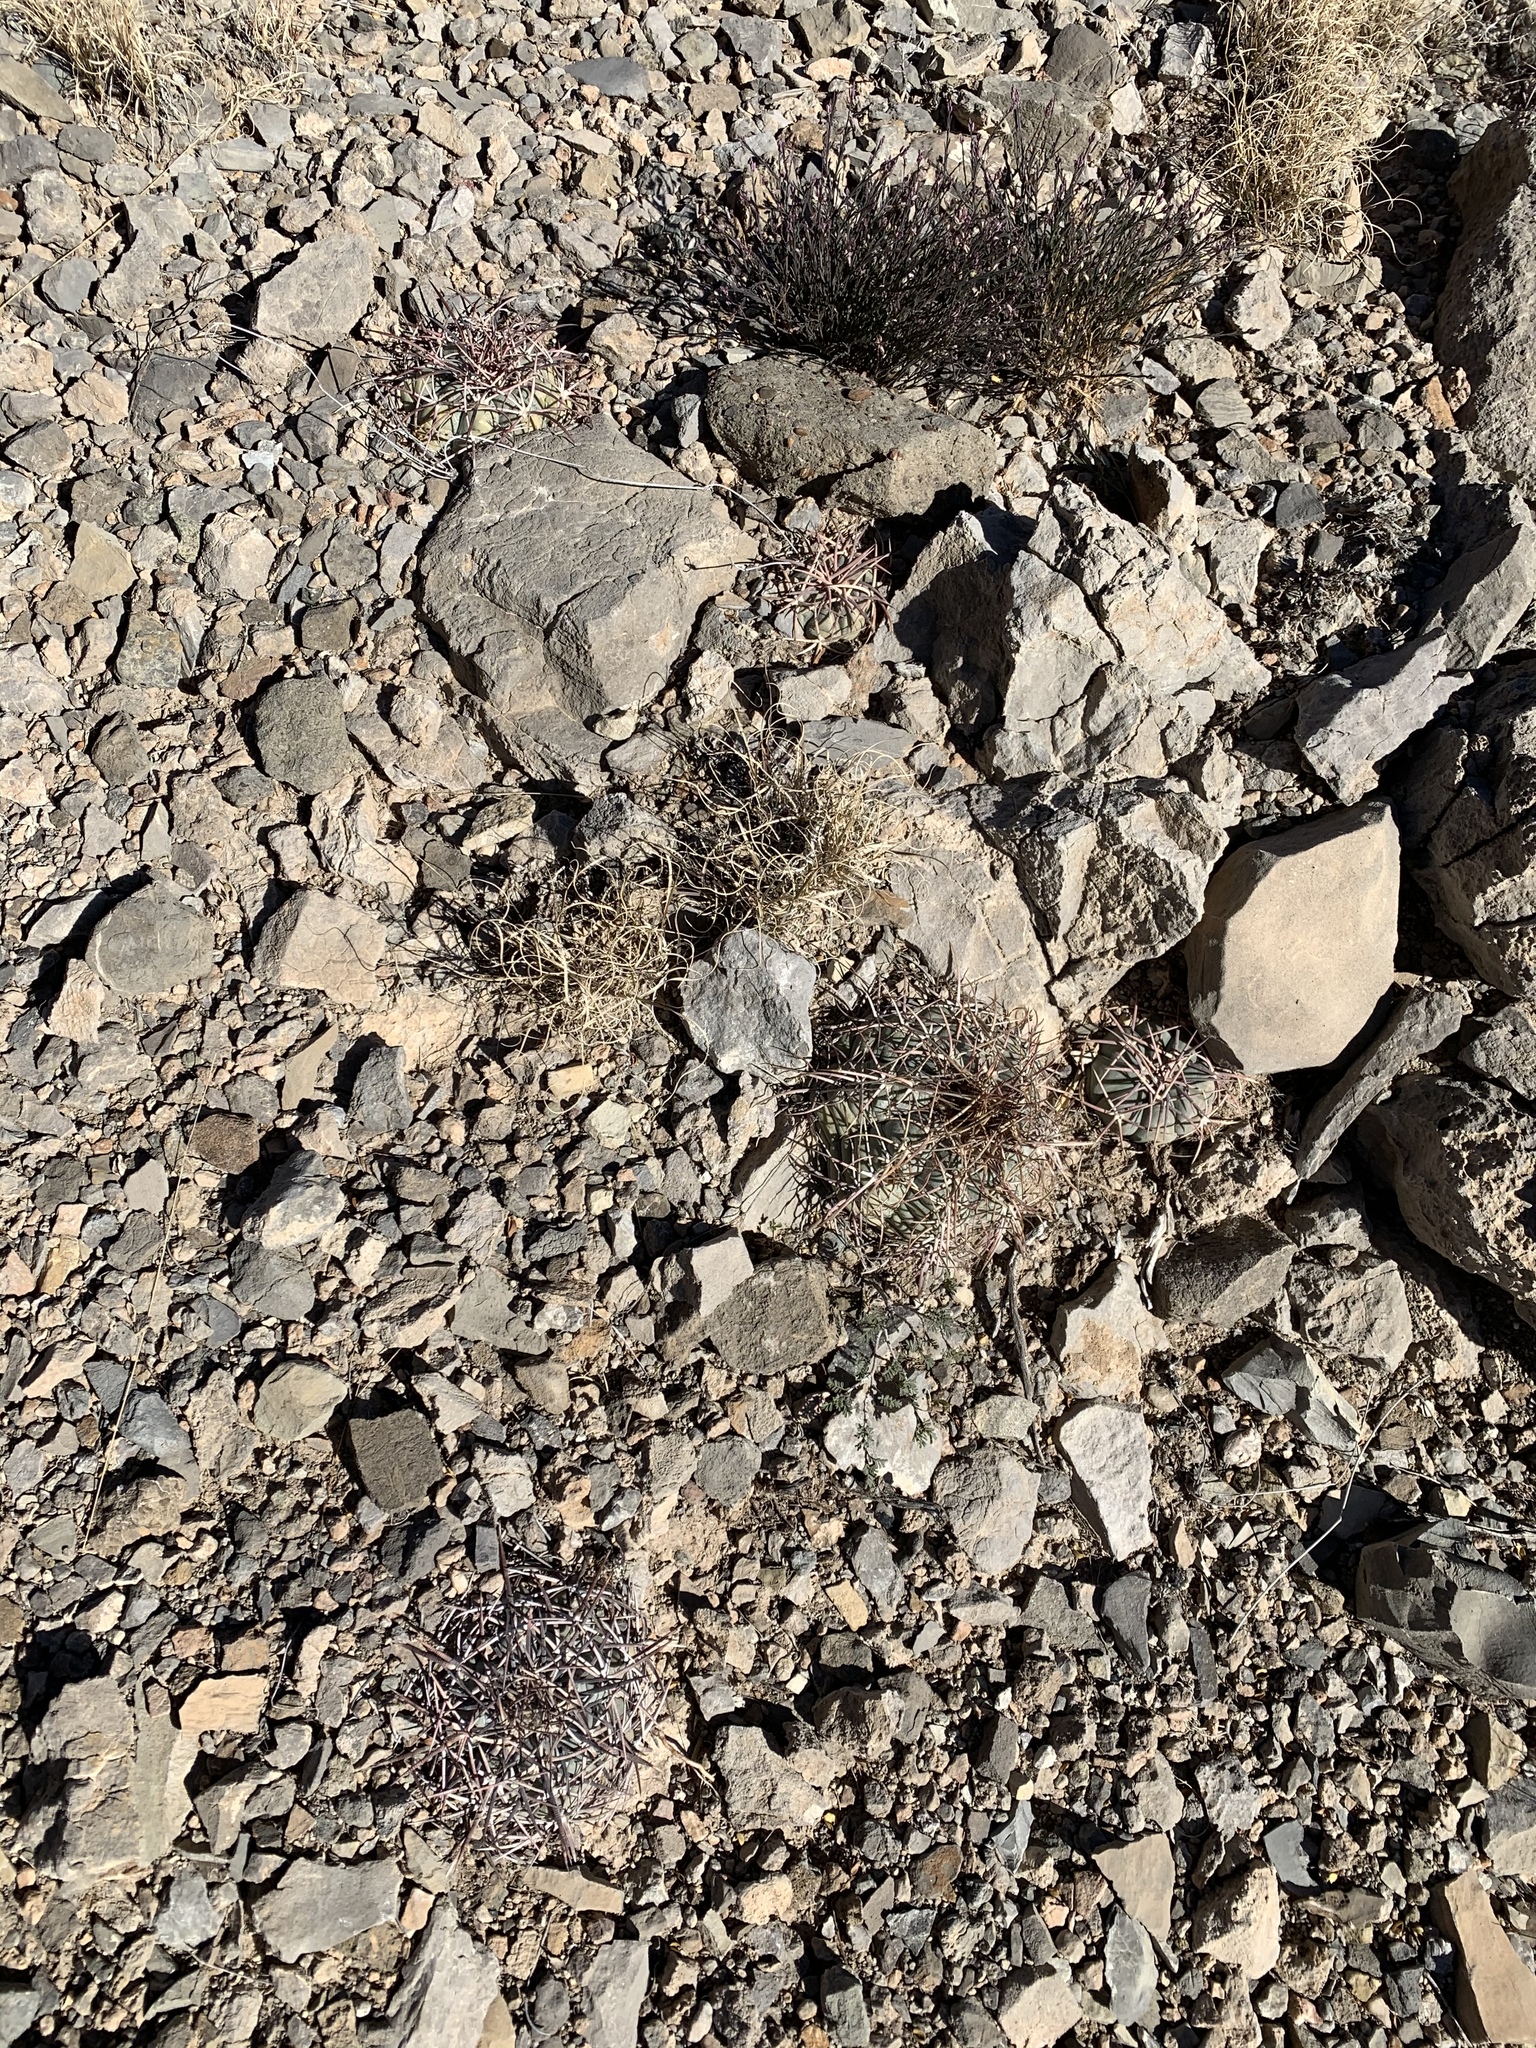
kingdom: Plantae
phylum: Tracheophyta
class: Magnoliopsida
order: Caryophyllales
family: Cactaceae
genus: Echinocactus
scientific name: Echinocactus horizonthalonius
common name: Devilshead
